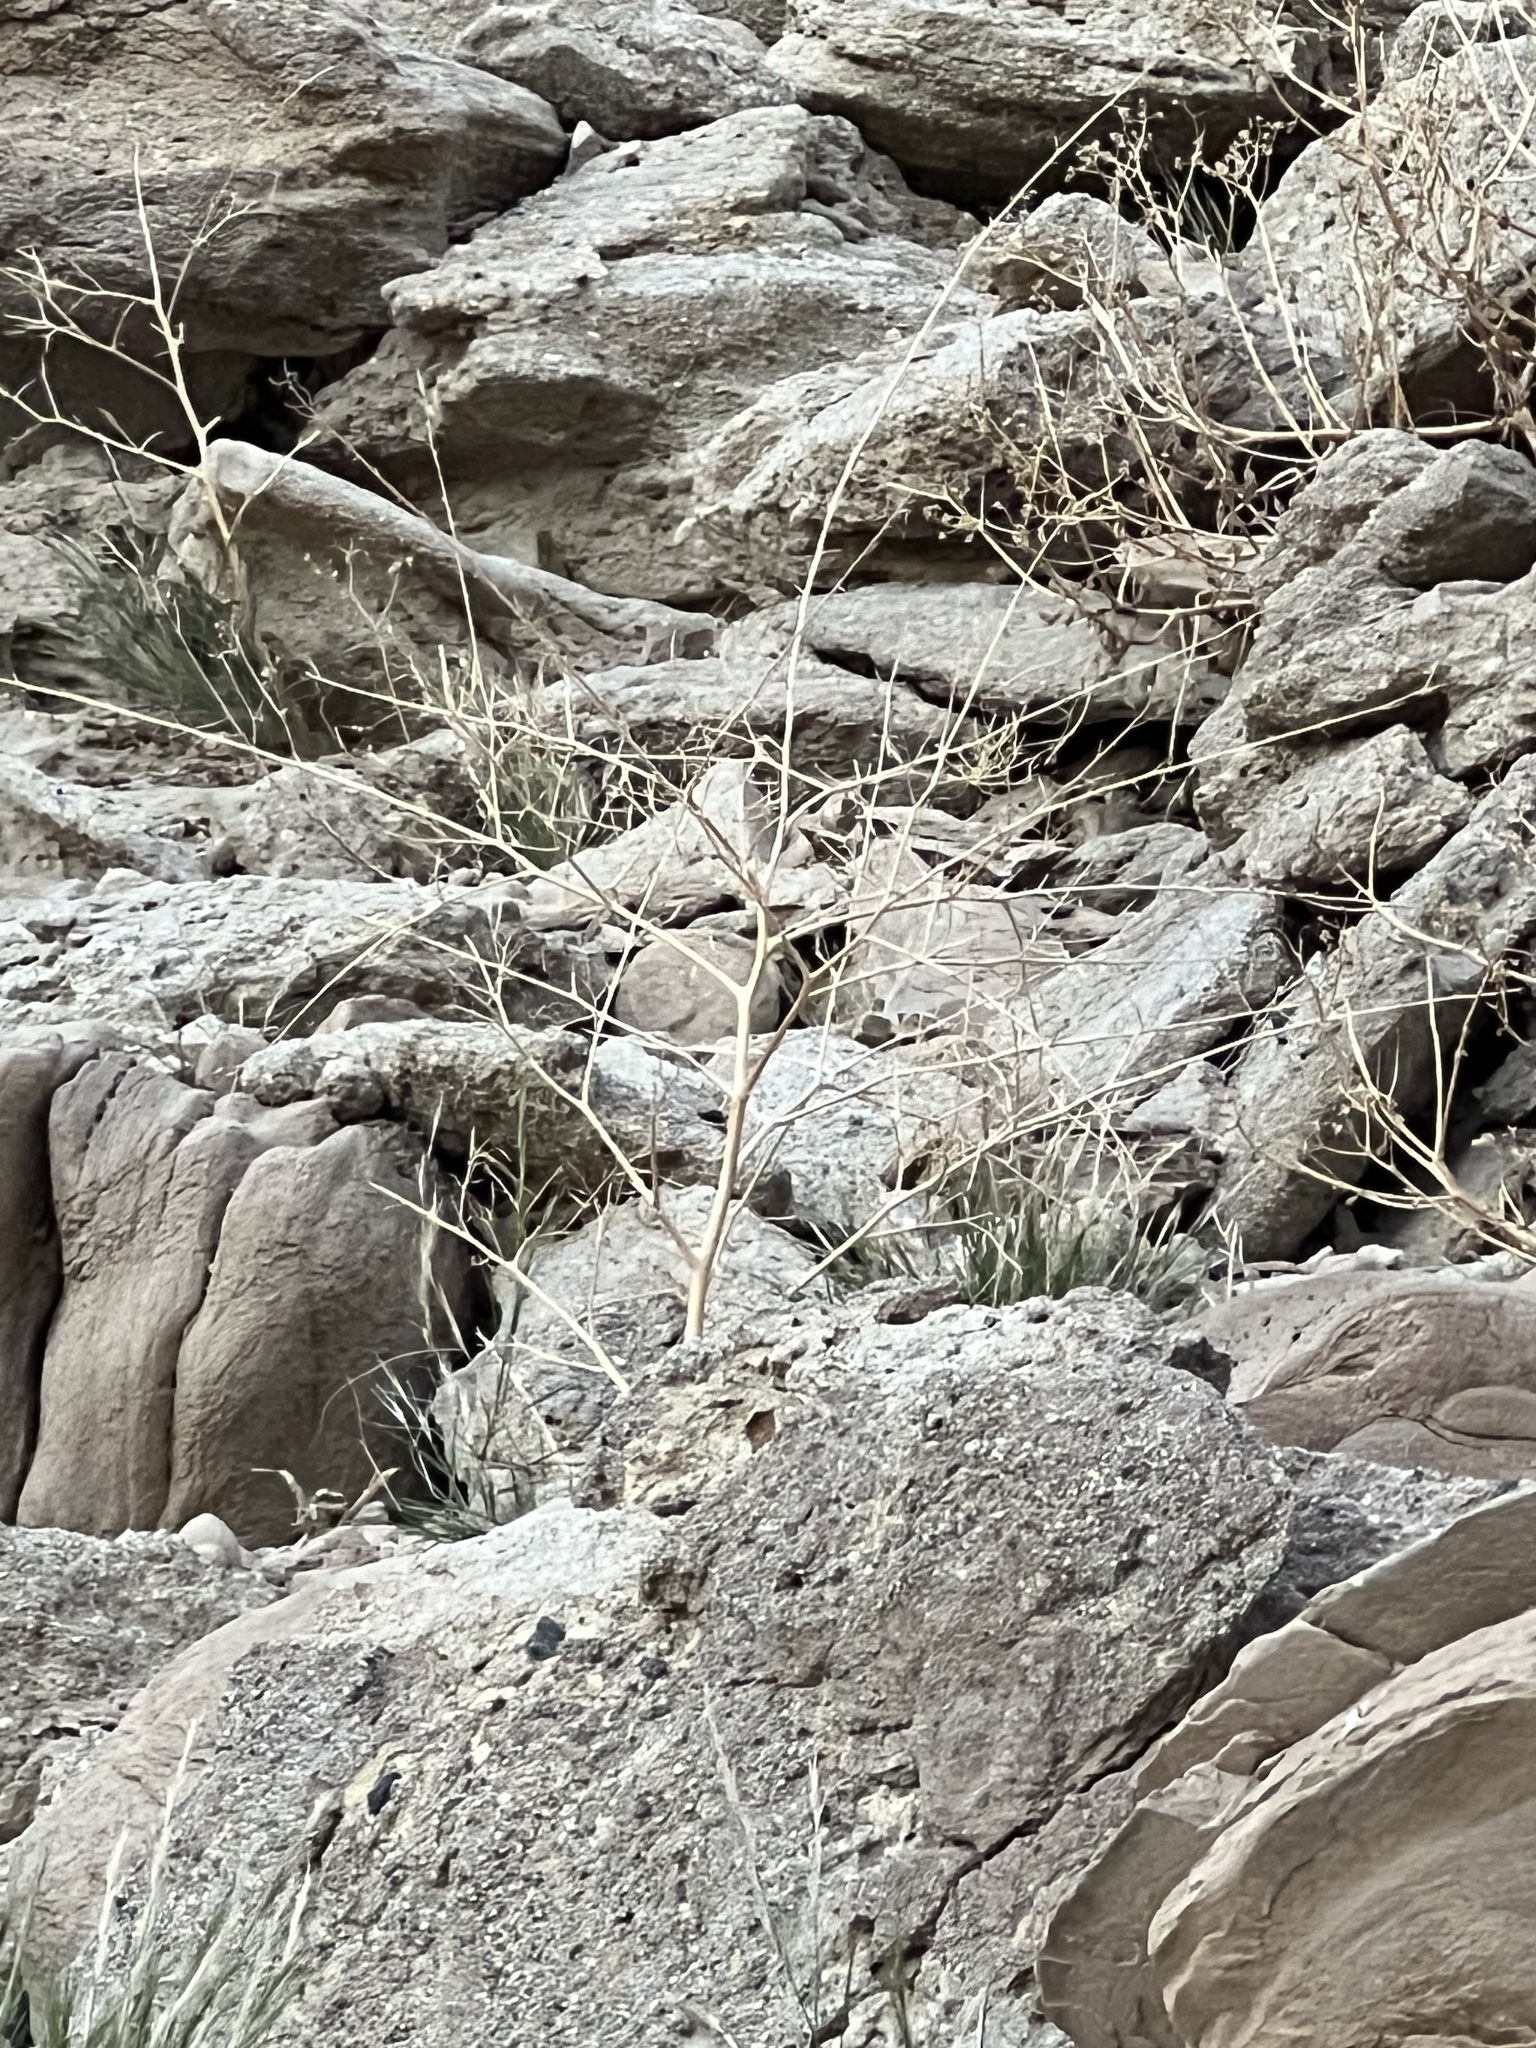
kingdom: Plantae
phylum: Tracheophyta
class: Magnoliopsida
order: Brassicales
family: Brassicaceae
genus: Brassica
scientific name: Brassica tournefortii
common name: Pale cabbage
